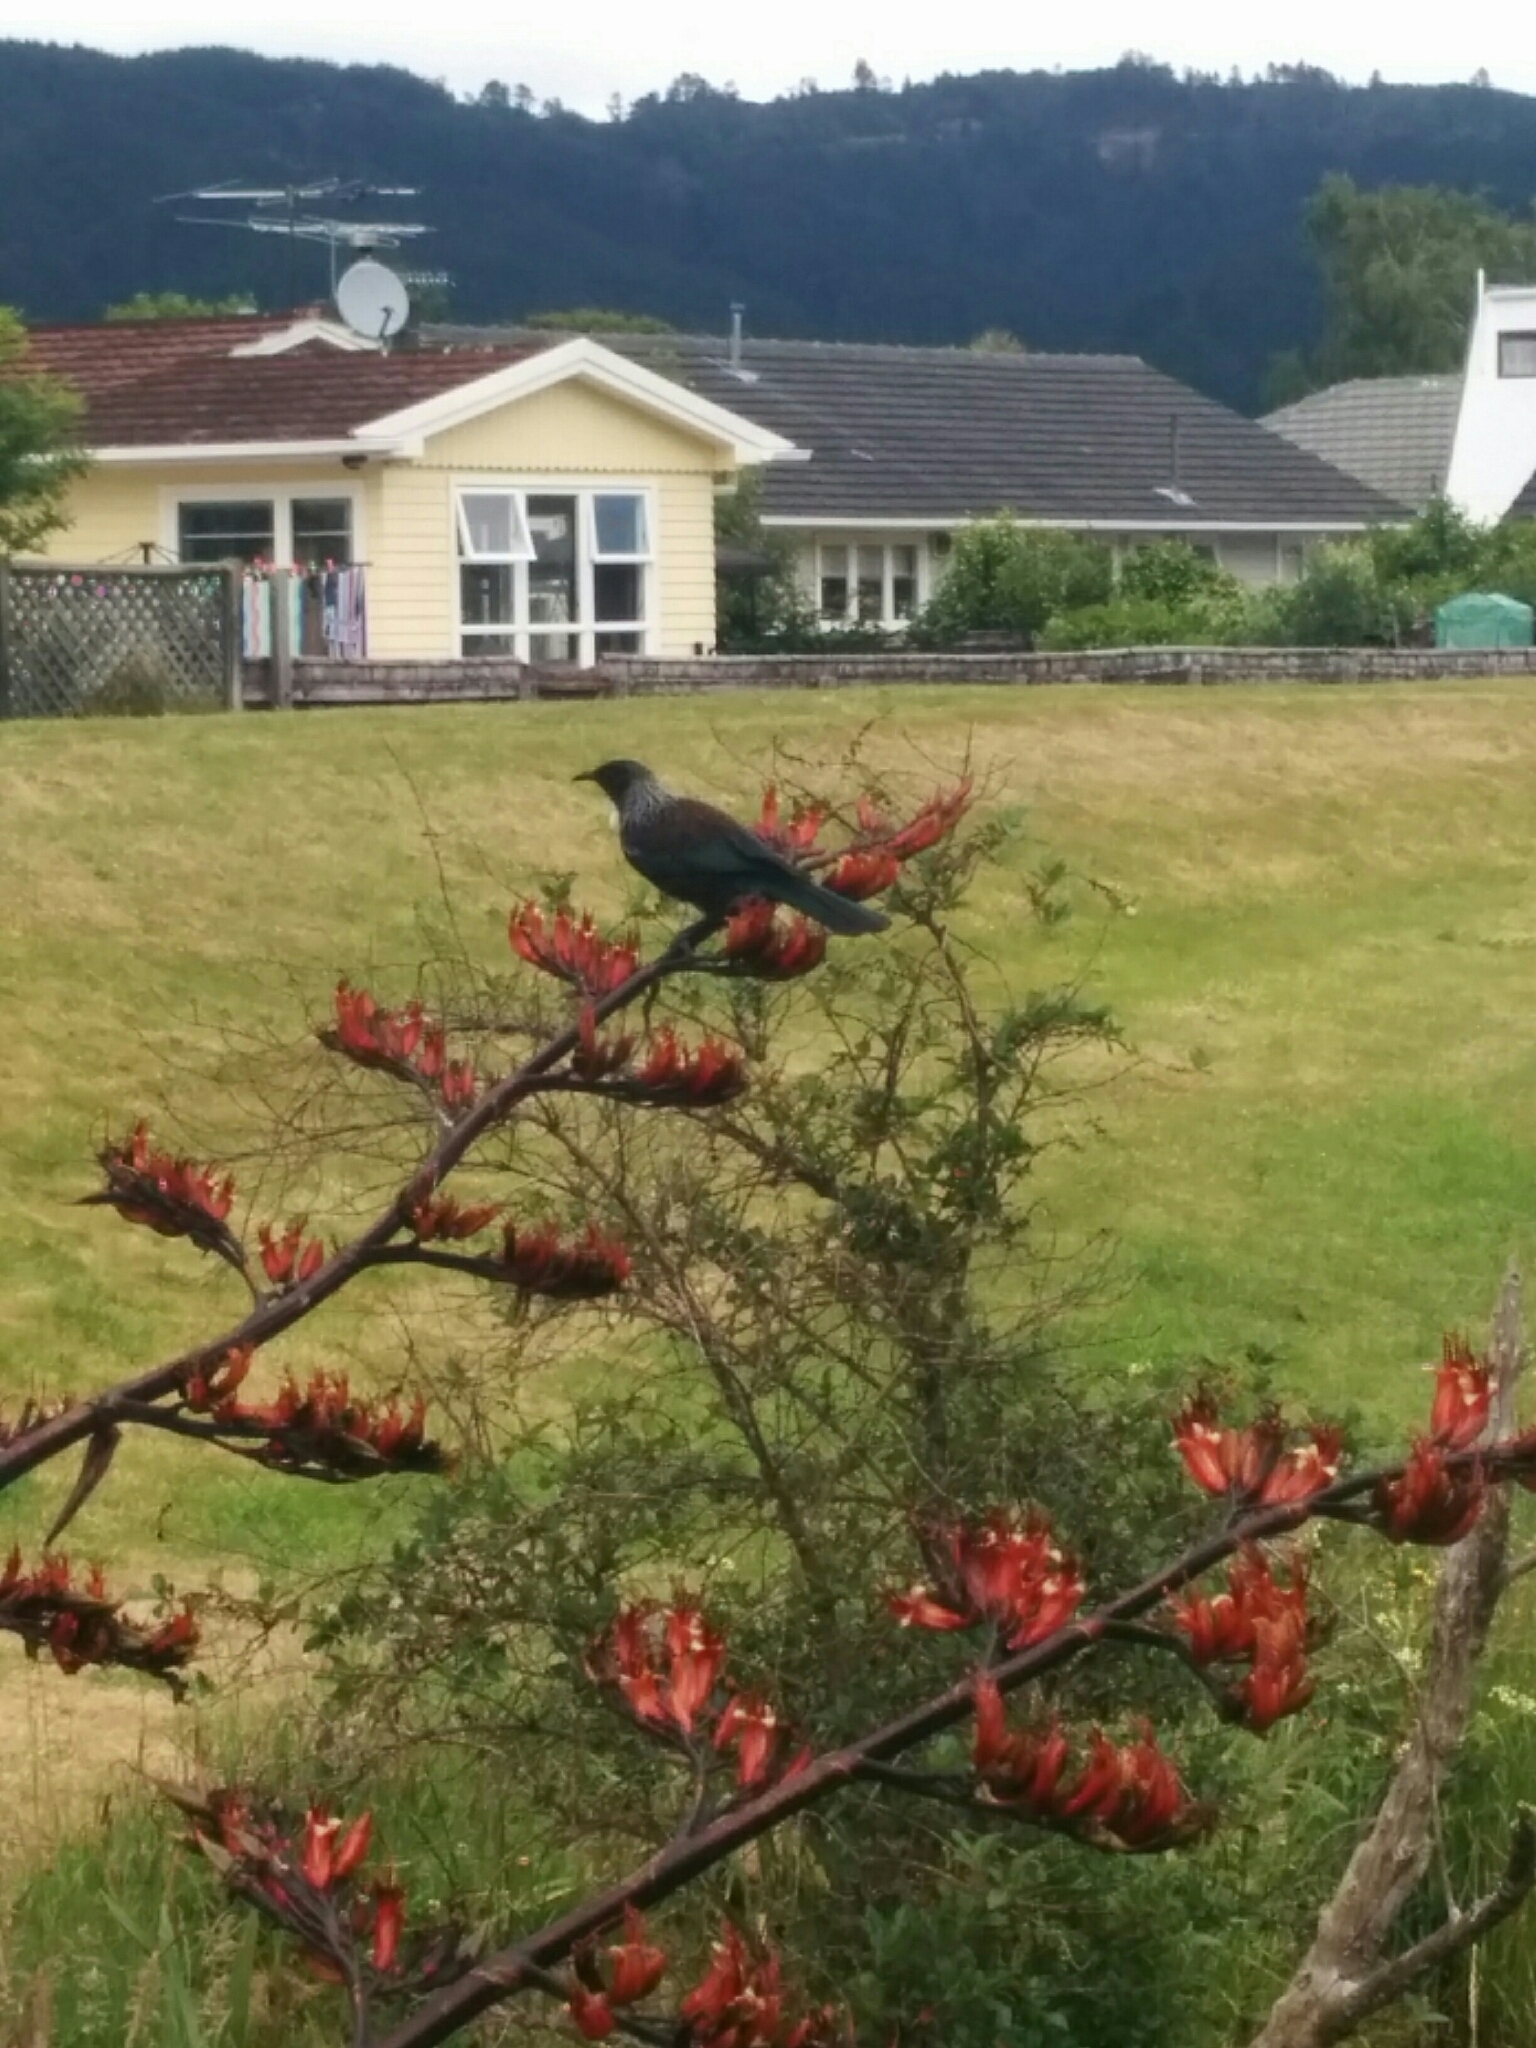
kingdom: Animalia
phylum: Chordata
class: Aves
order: Passeriformes
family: Meliphagidae
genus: Prosthemadera
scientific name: Prosthemadera novaeseelandiae
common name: Tui
